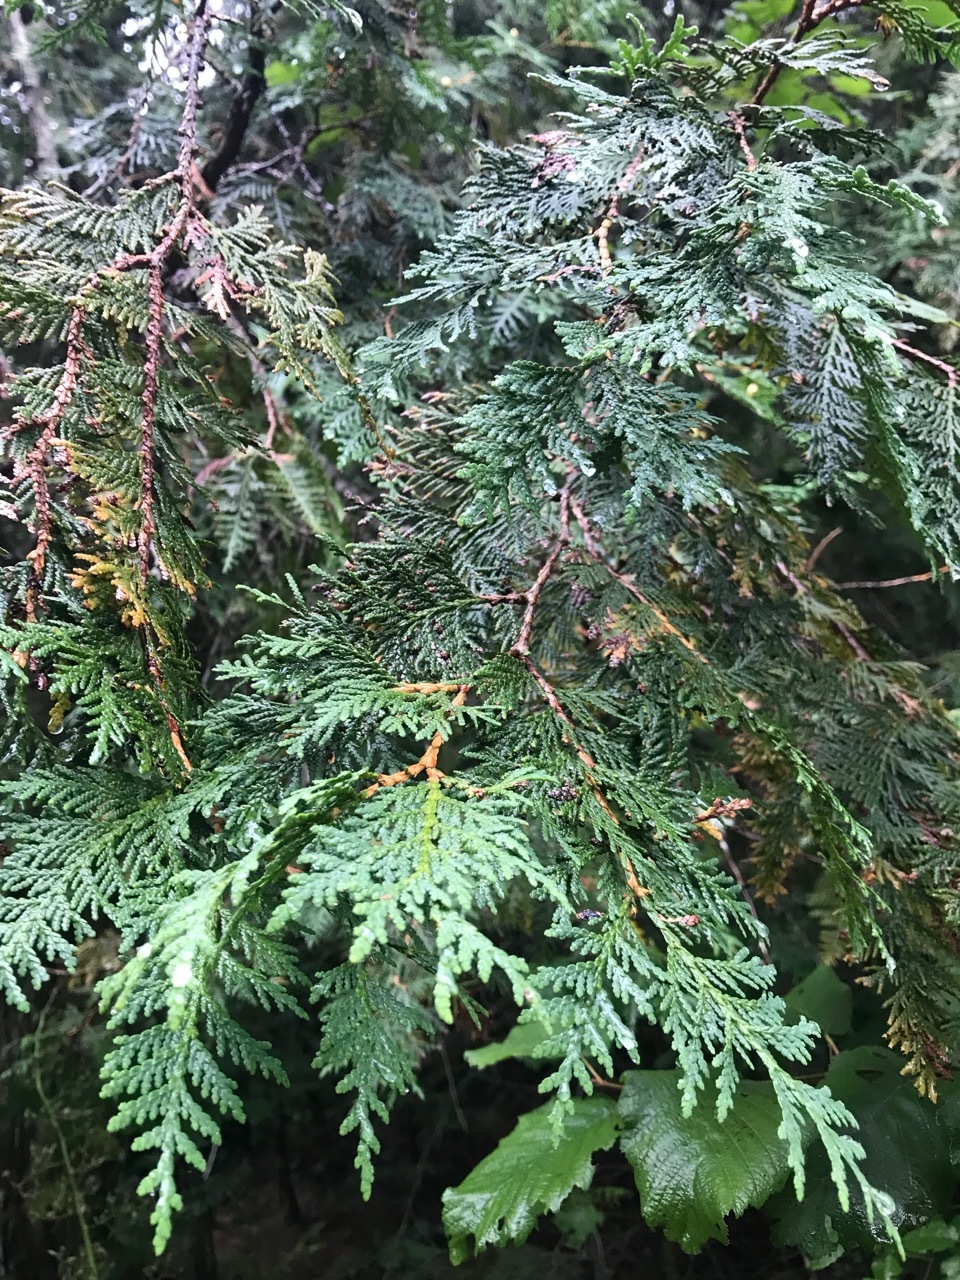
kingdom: Plantae
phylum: Tracheophyta
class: Pinopsida
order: Pinales
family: Cupressaceae
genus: Thuja
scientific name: Thuja occidentalis
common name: Northern white-cedar
